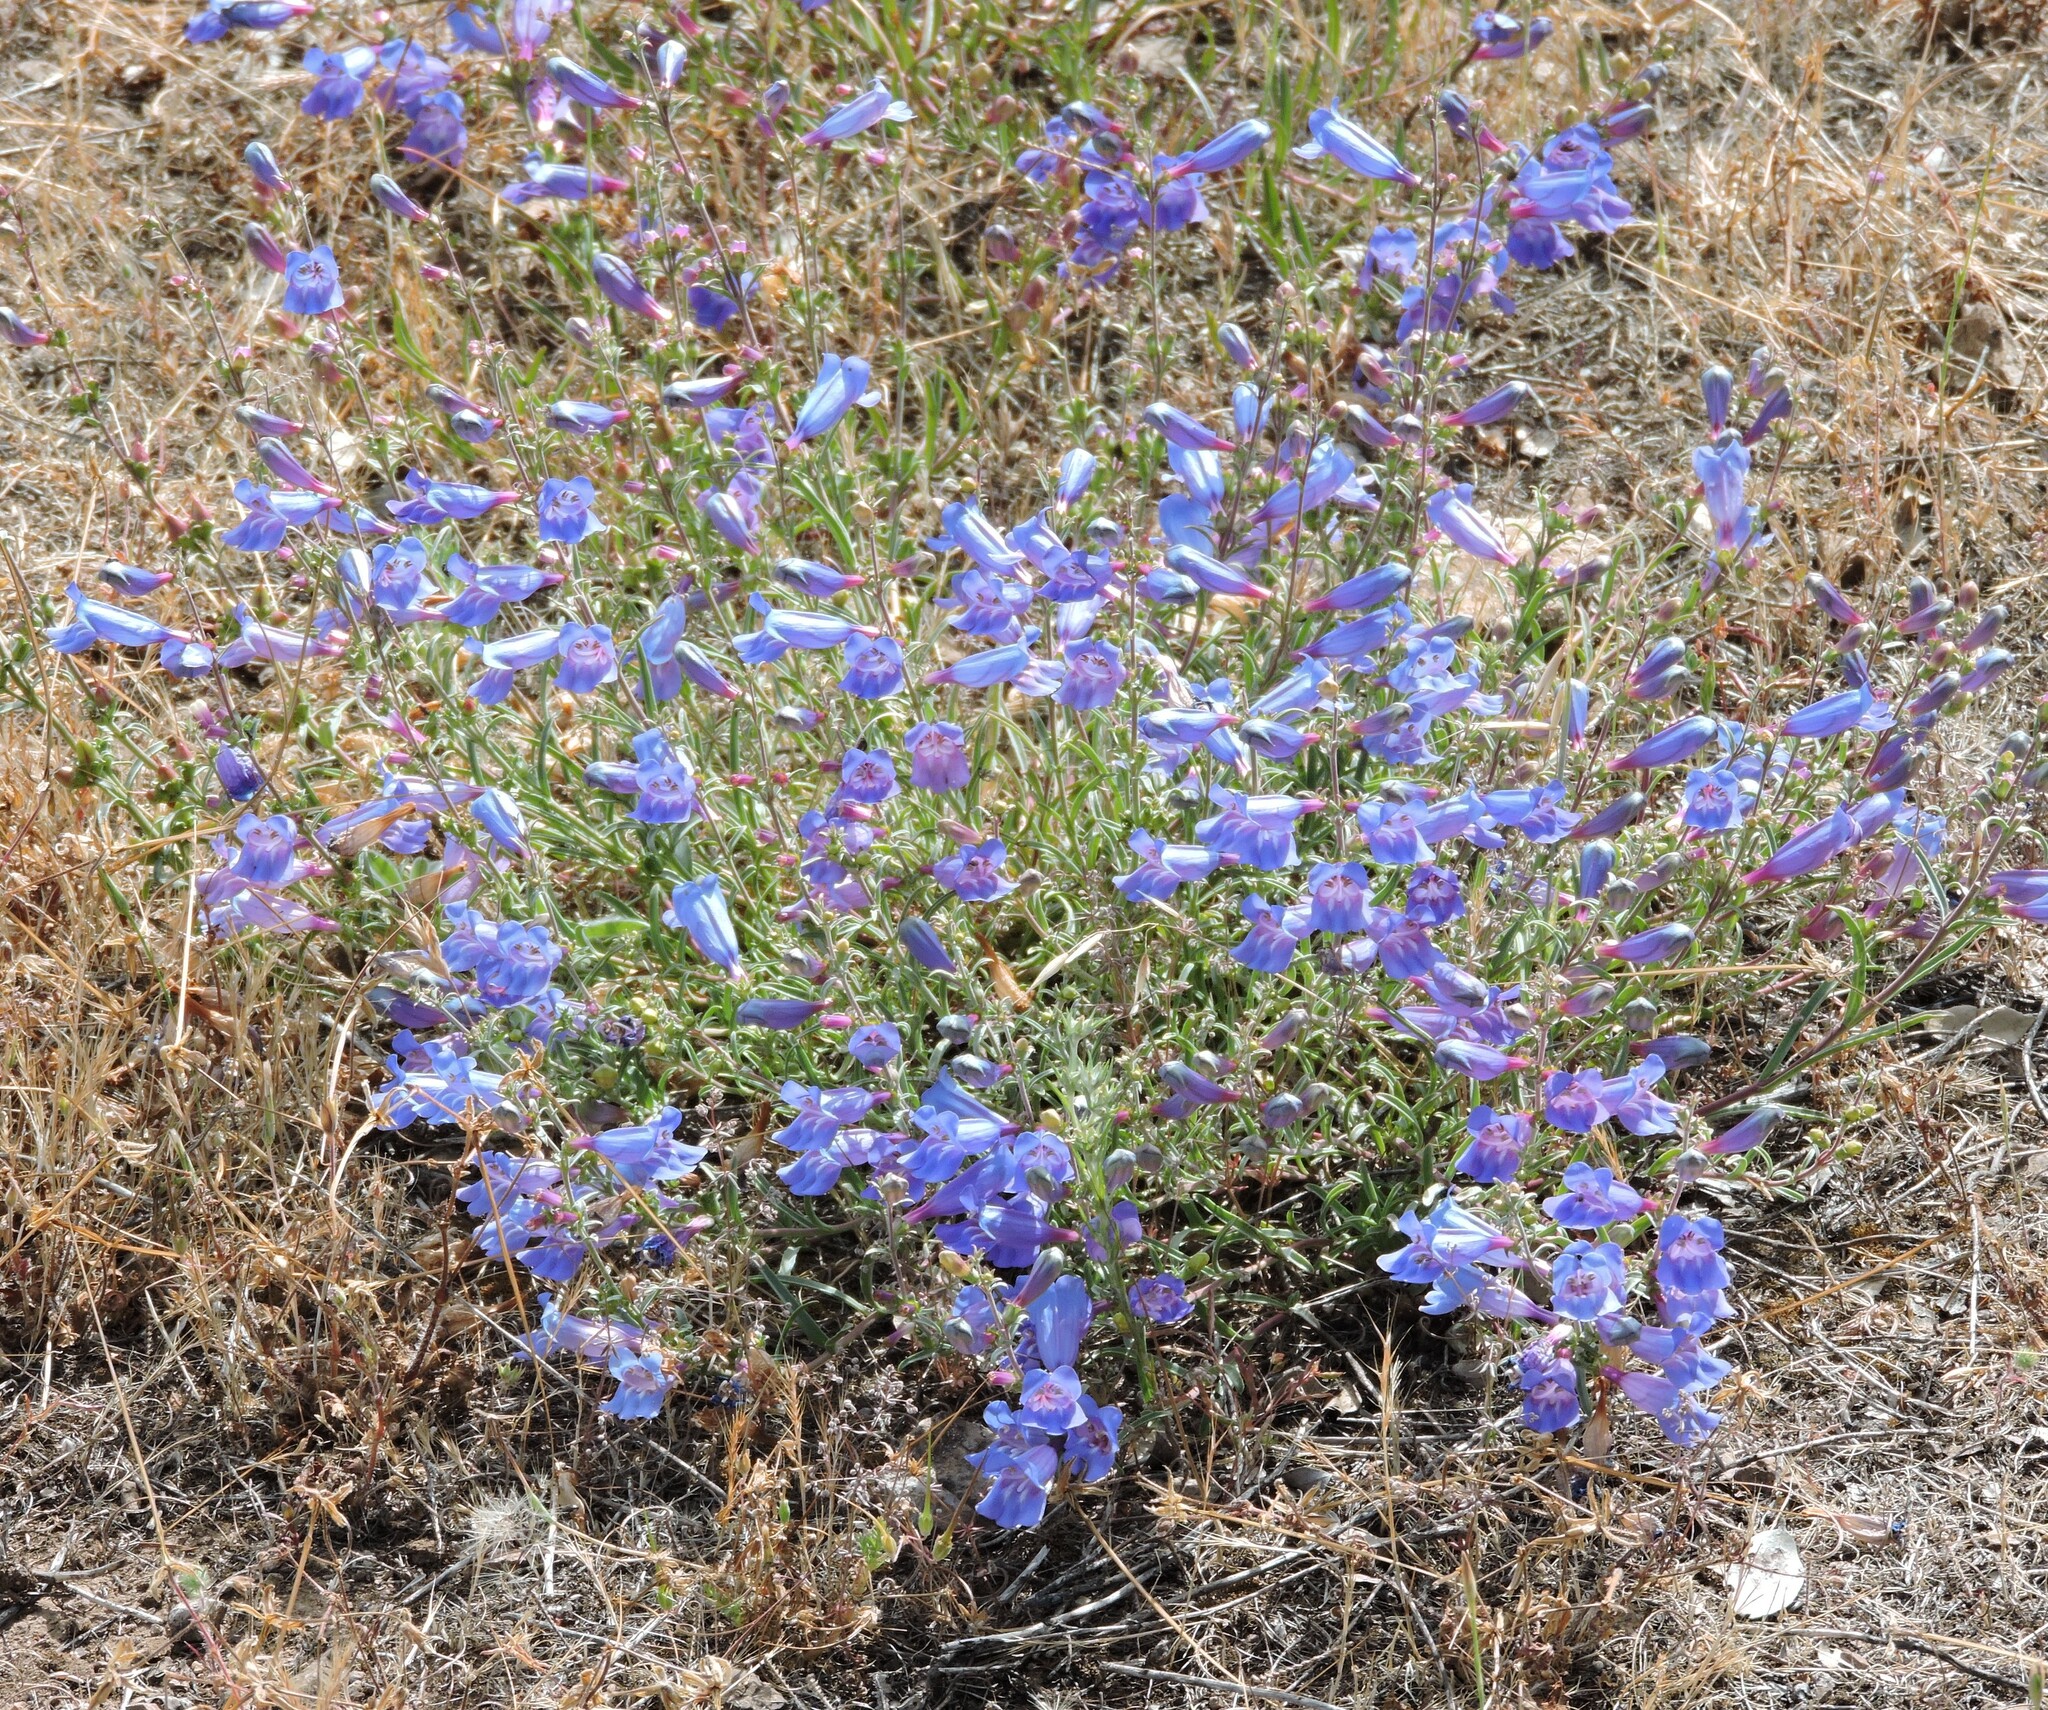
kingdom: Plantae
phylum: Tracheophyta
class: Magnoliopsida
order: Lamiales
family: Plantaginaceae
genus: Penstemon
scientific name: Penstemon heterophyllus
